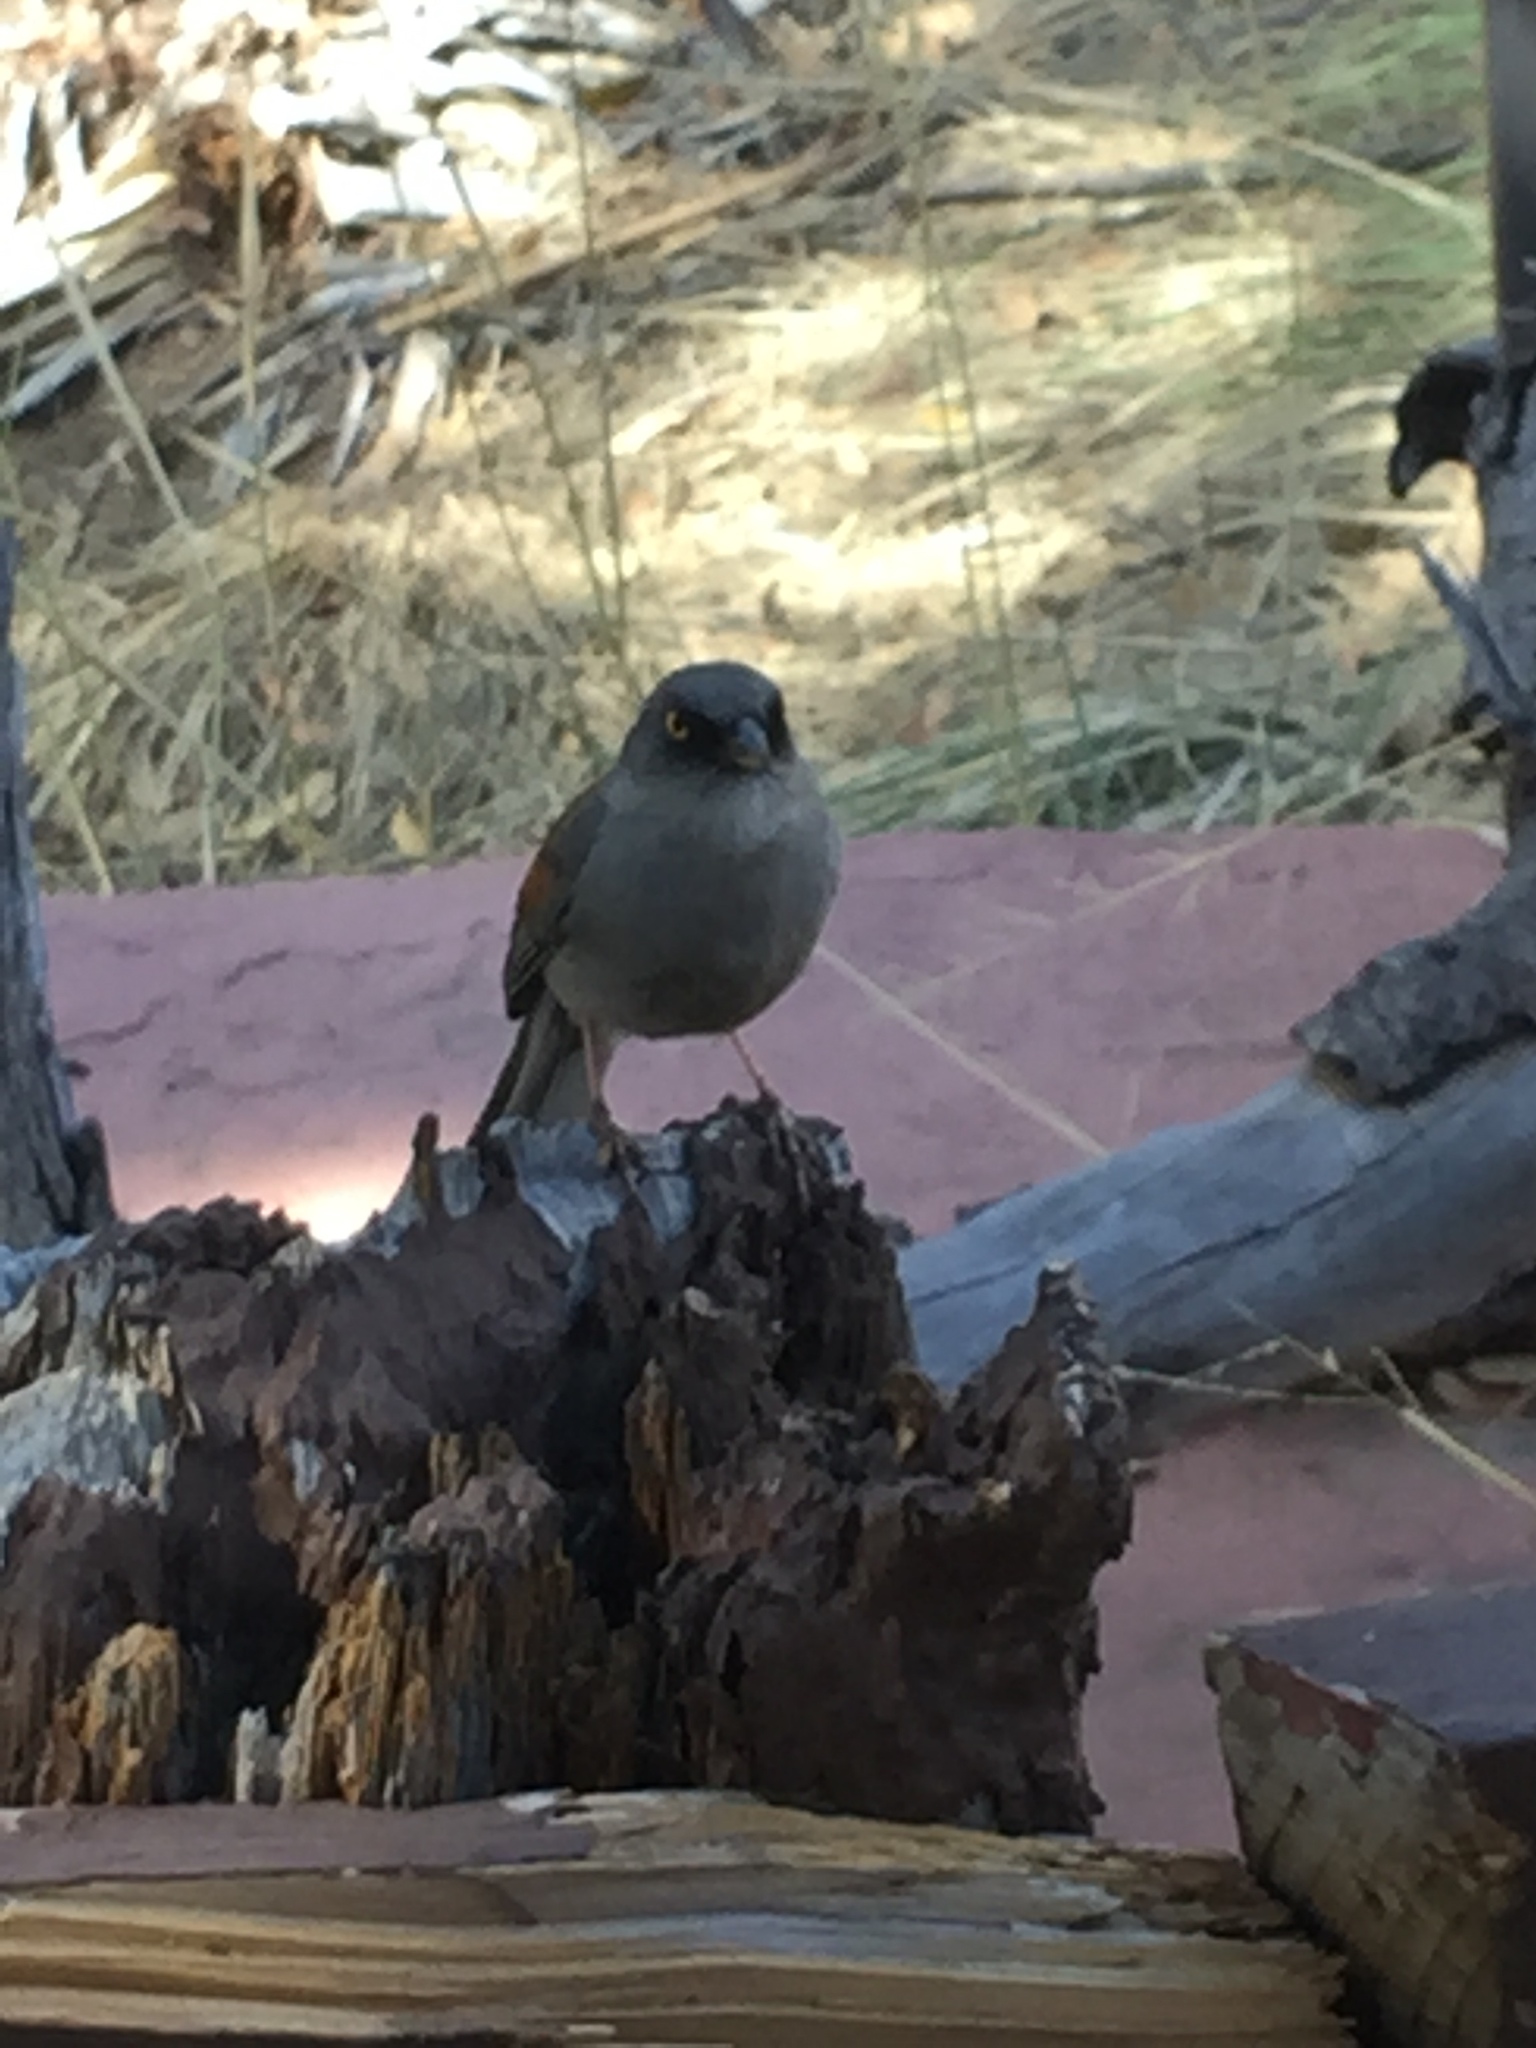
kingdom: Animalia
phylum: Chordata
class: Aves
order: Passeriformes
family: Passerellidae
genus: Junco
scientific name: Junco phaeonotus
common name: Yellow-eyed junco
